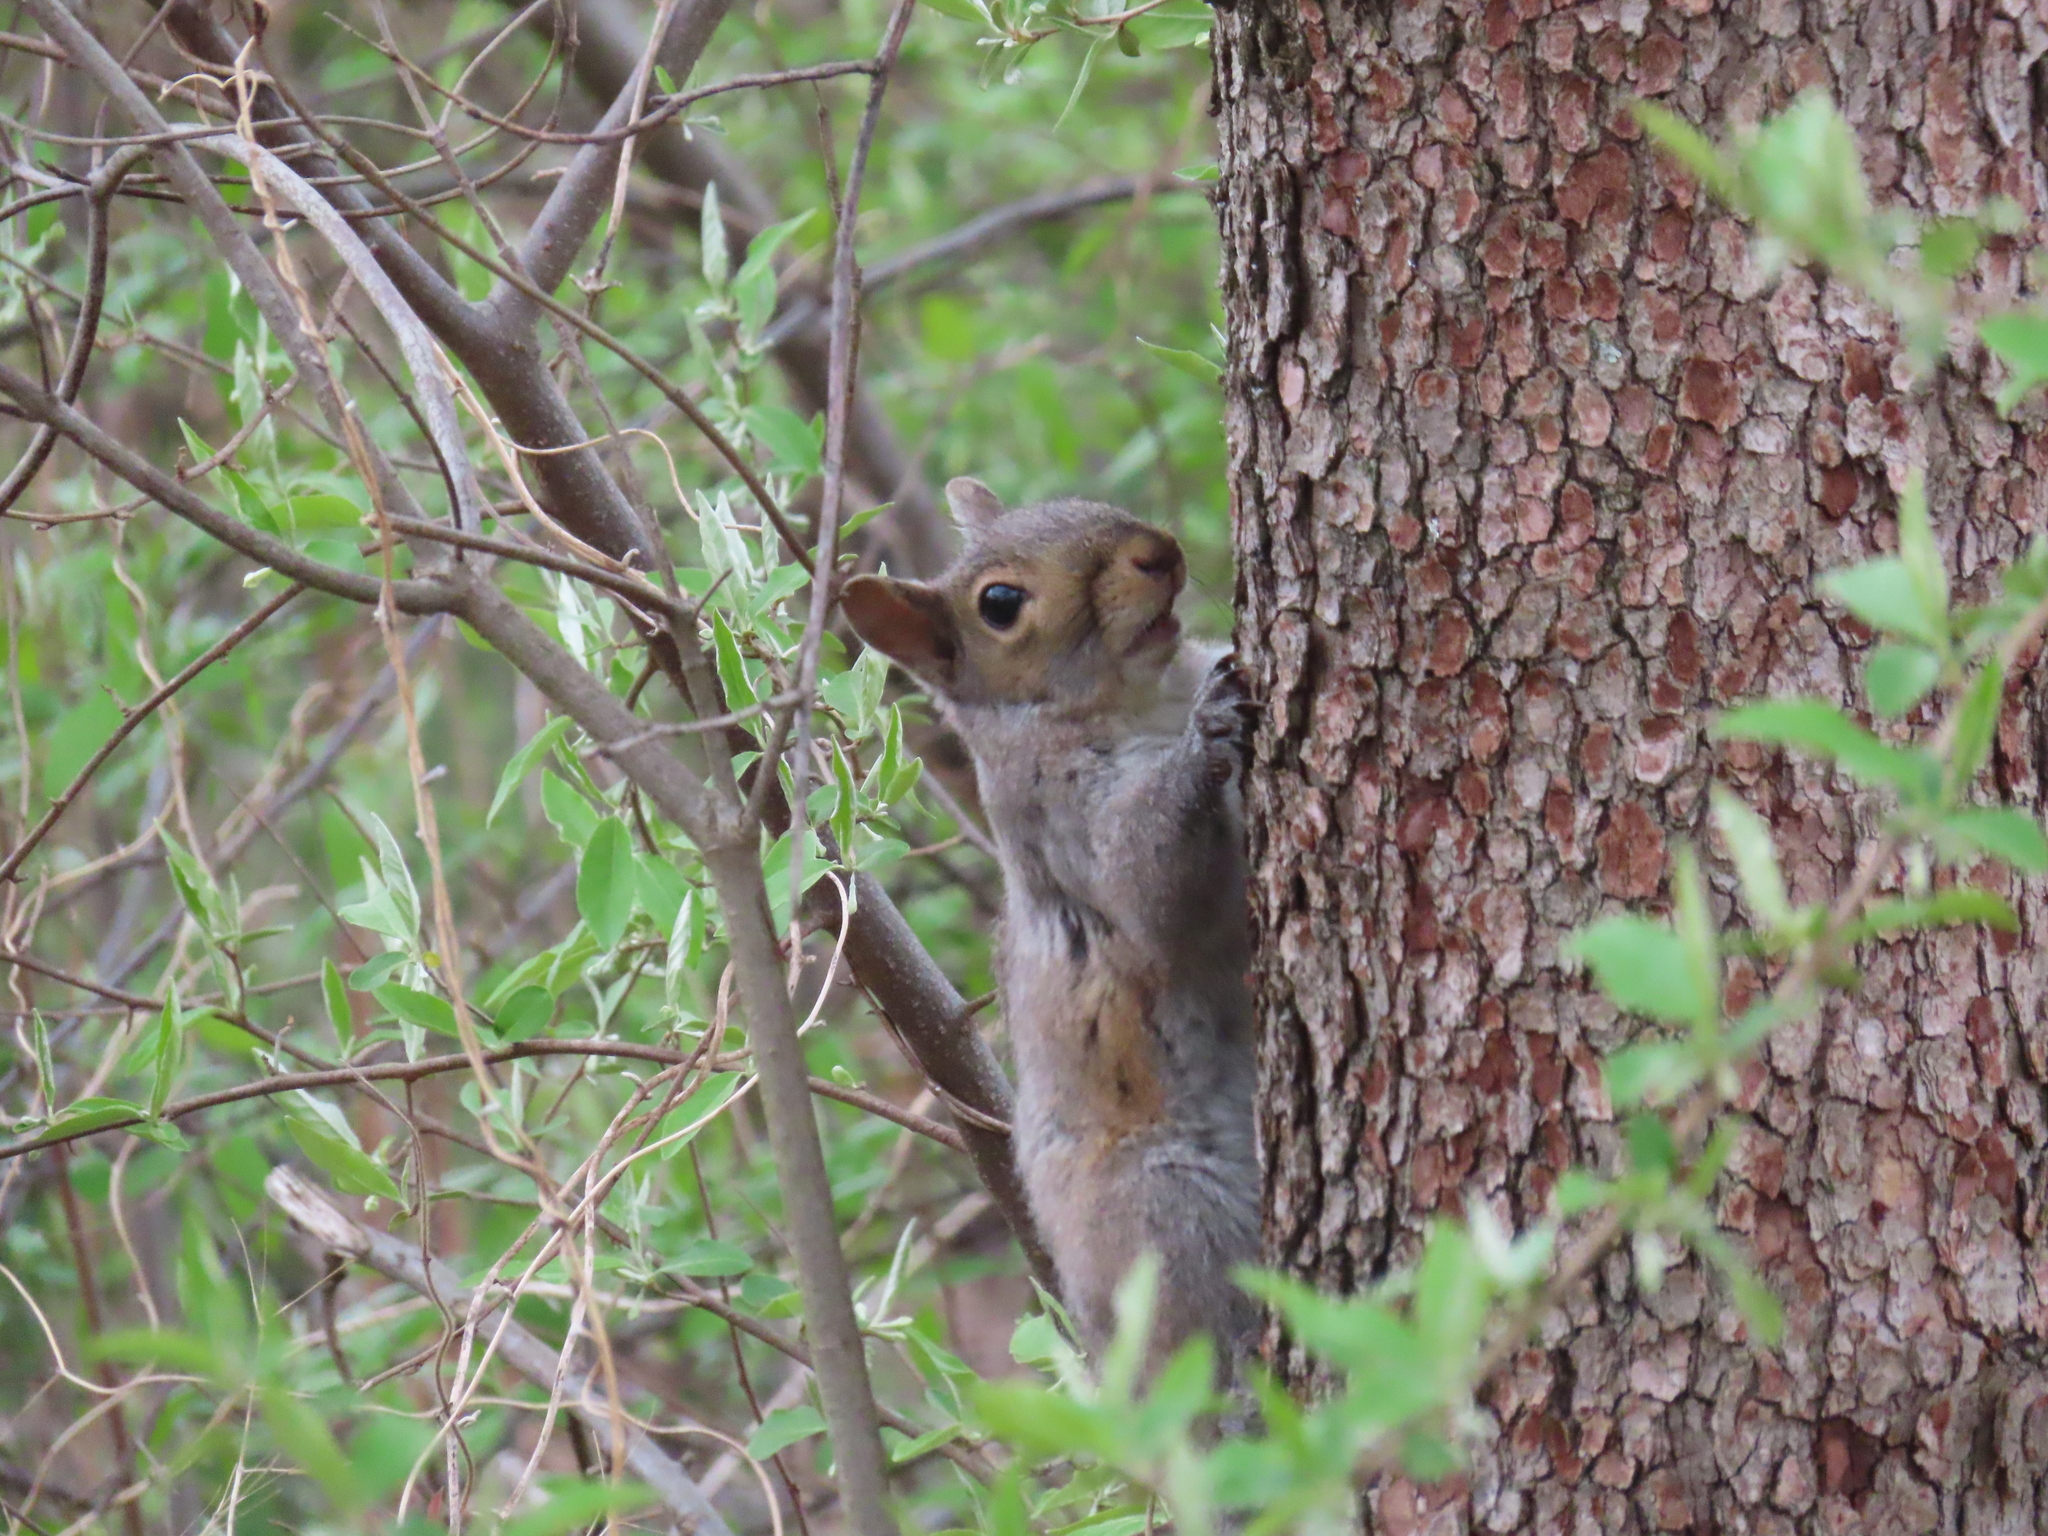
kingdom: Animalia
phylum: Chordata
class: Mammalia
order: Rodentia
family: Sciuridae
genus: Sciurus
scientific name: Sciurus carolinensis
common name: Eastern gray squirrel
